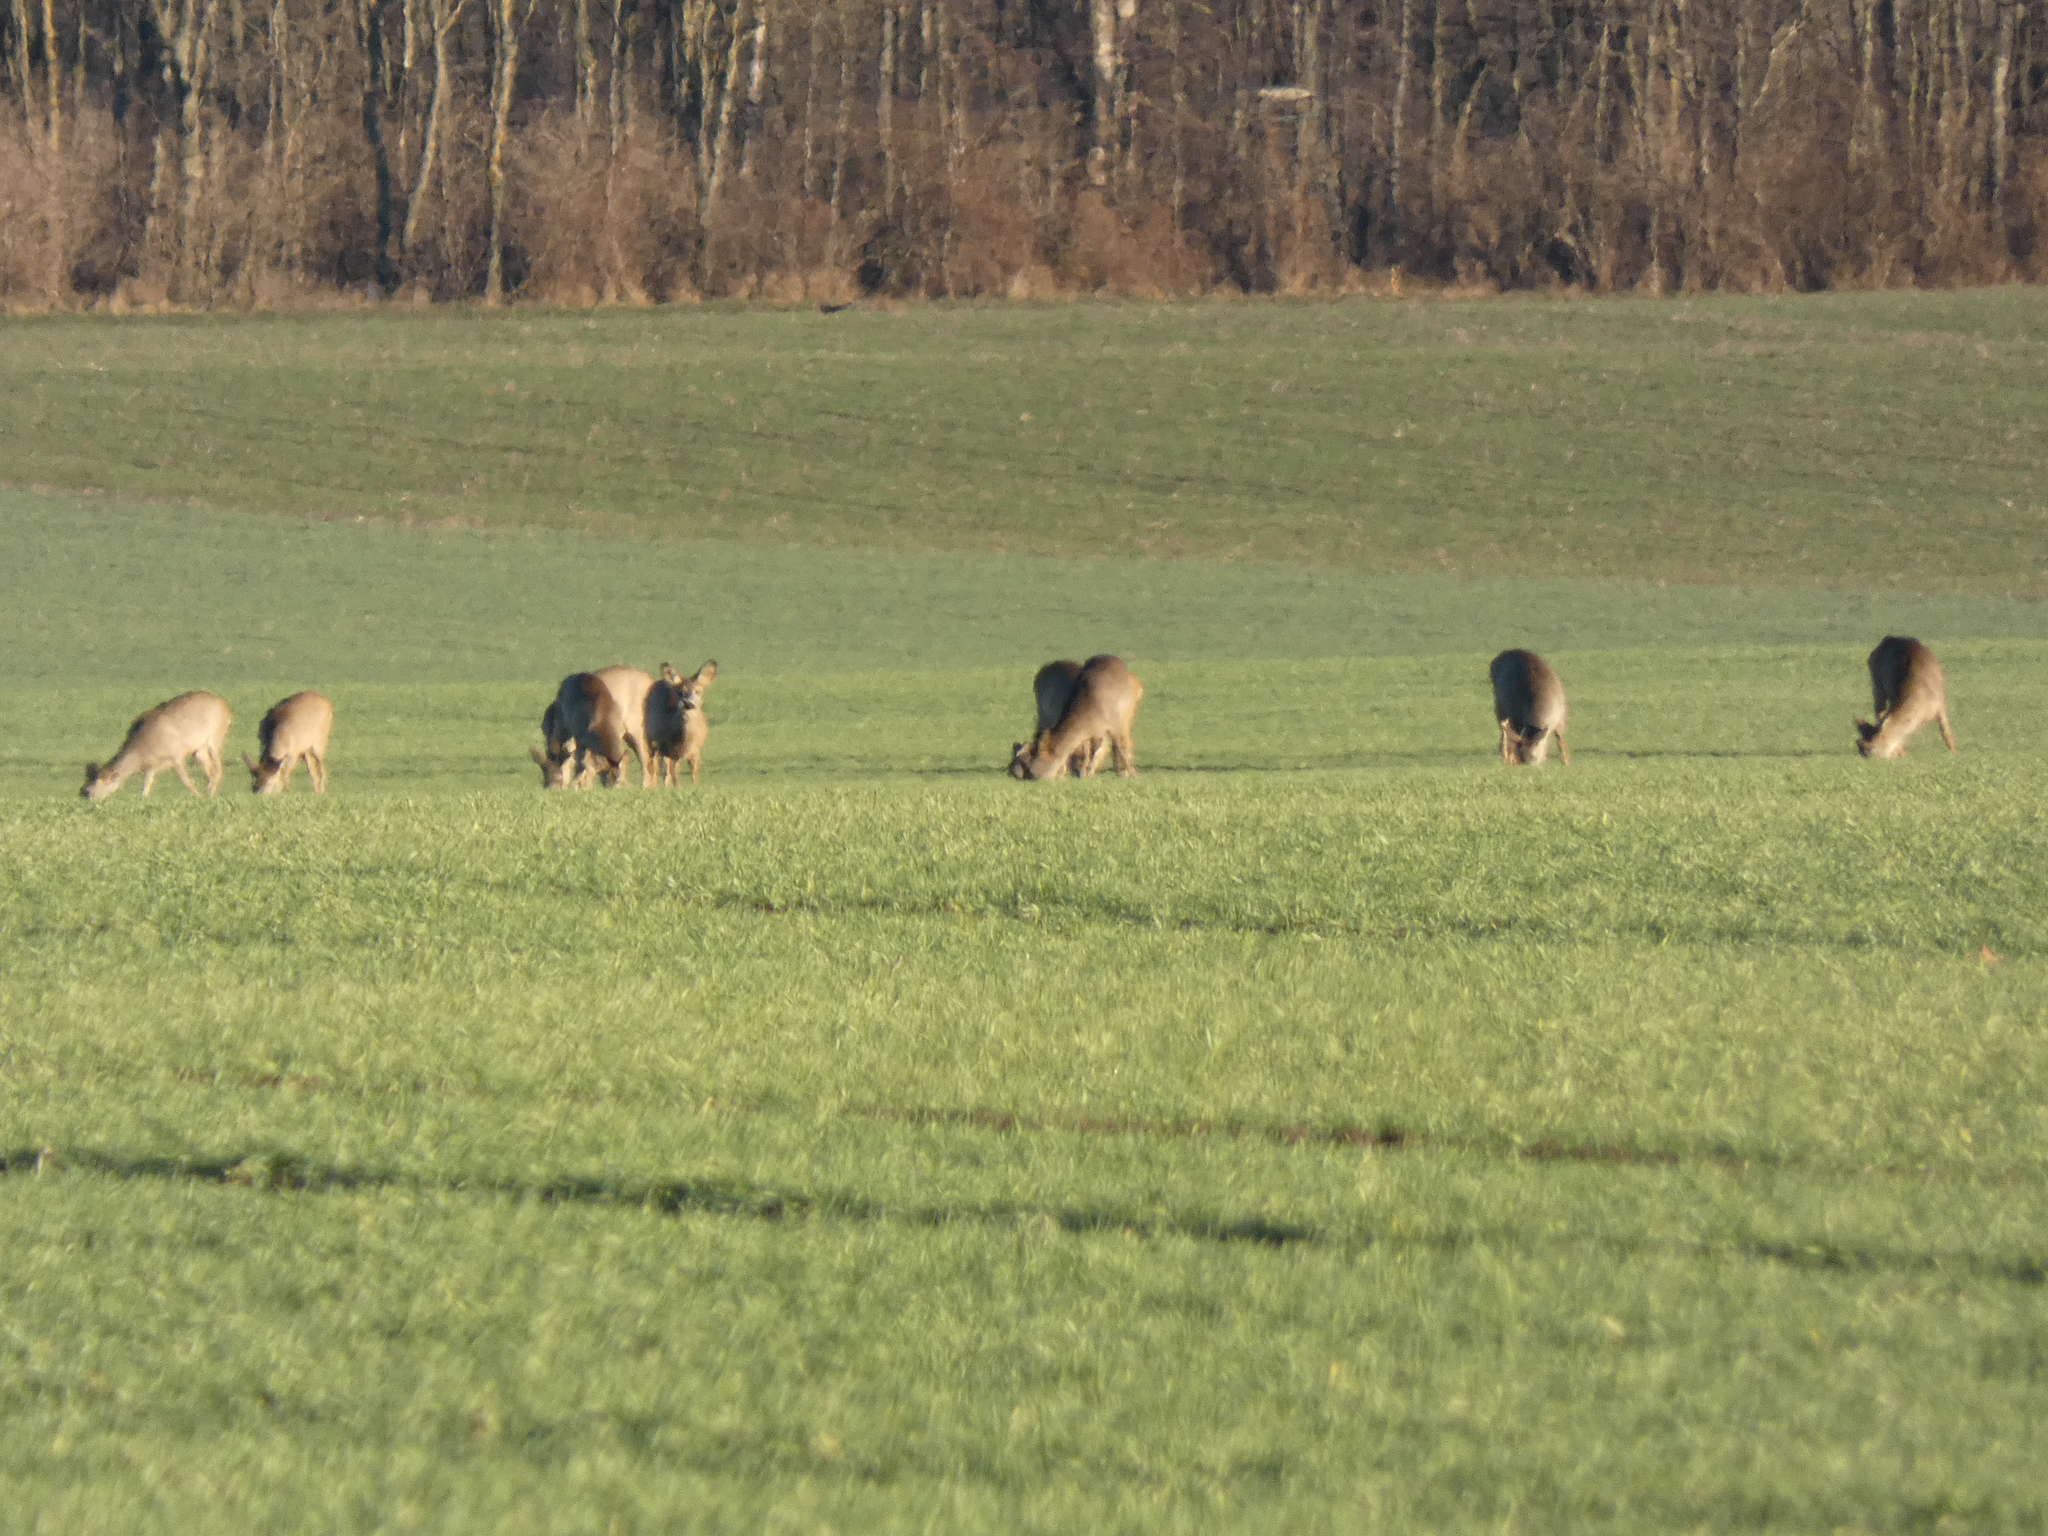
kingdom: Animalia
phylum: Chordata
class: Mammalia
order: Artiodactyla
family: Cervidae
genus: Capreolus
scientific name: Capreolus capreolus
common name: Western roe deer
